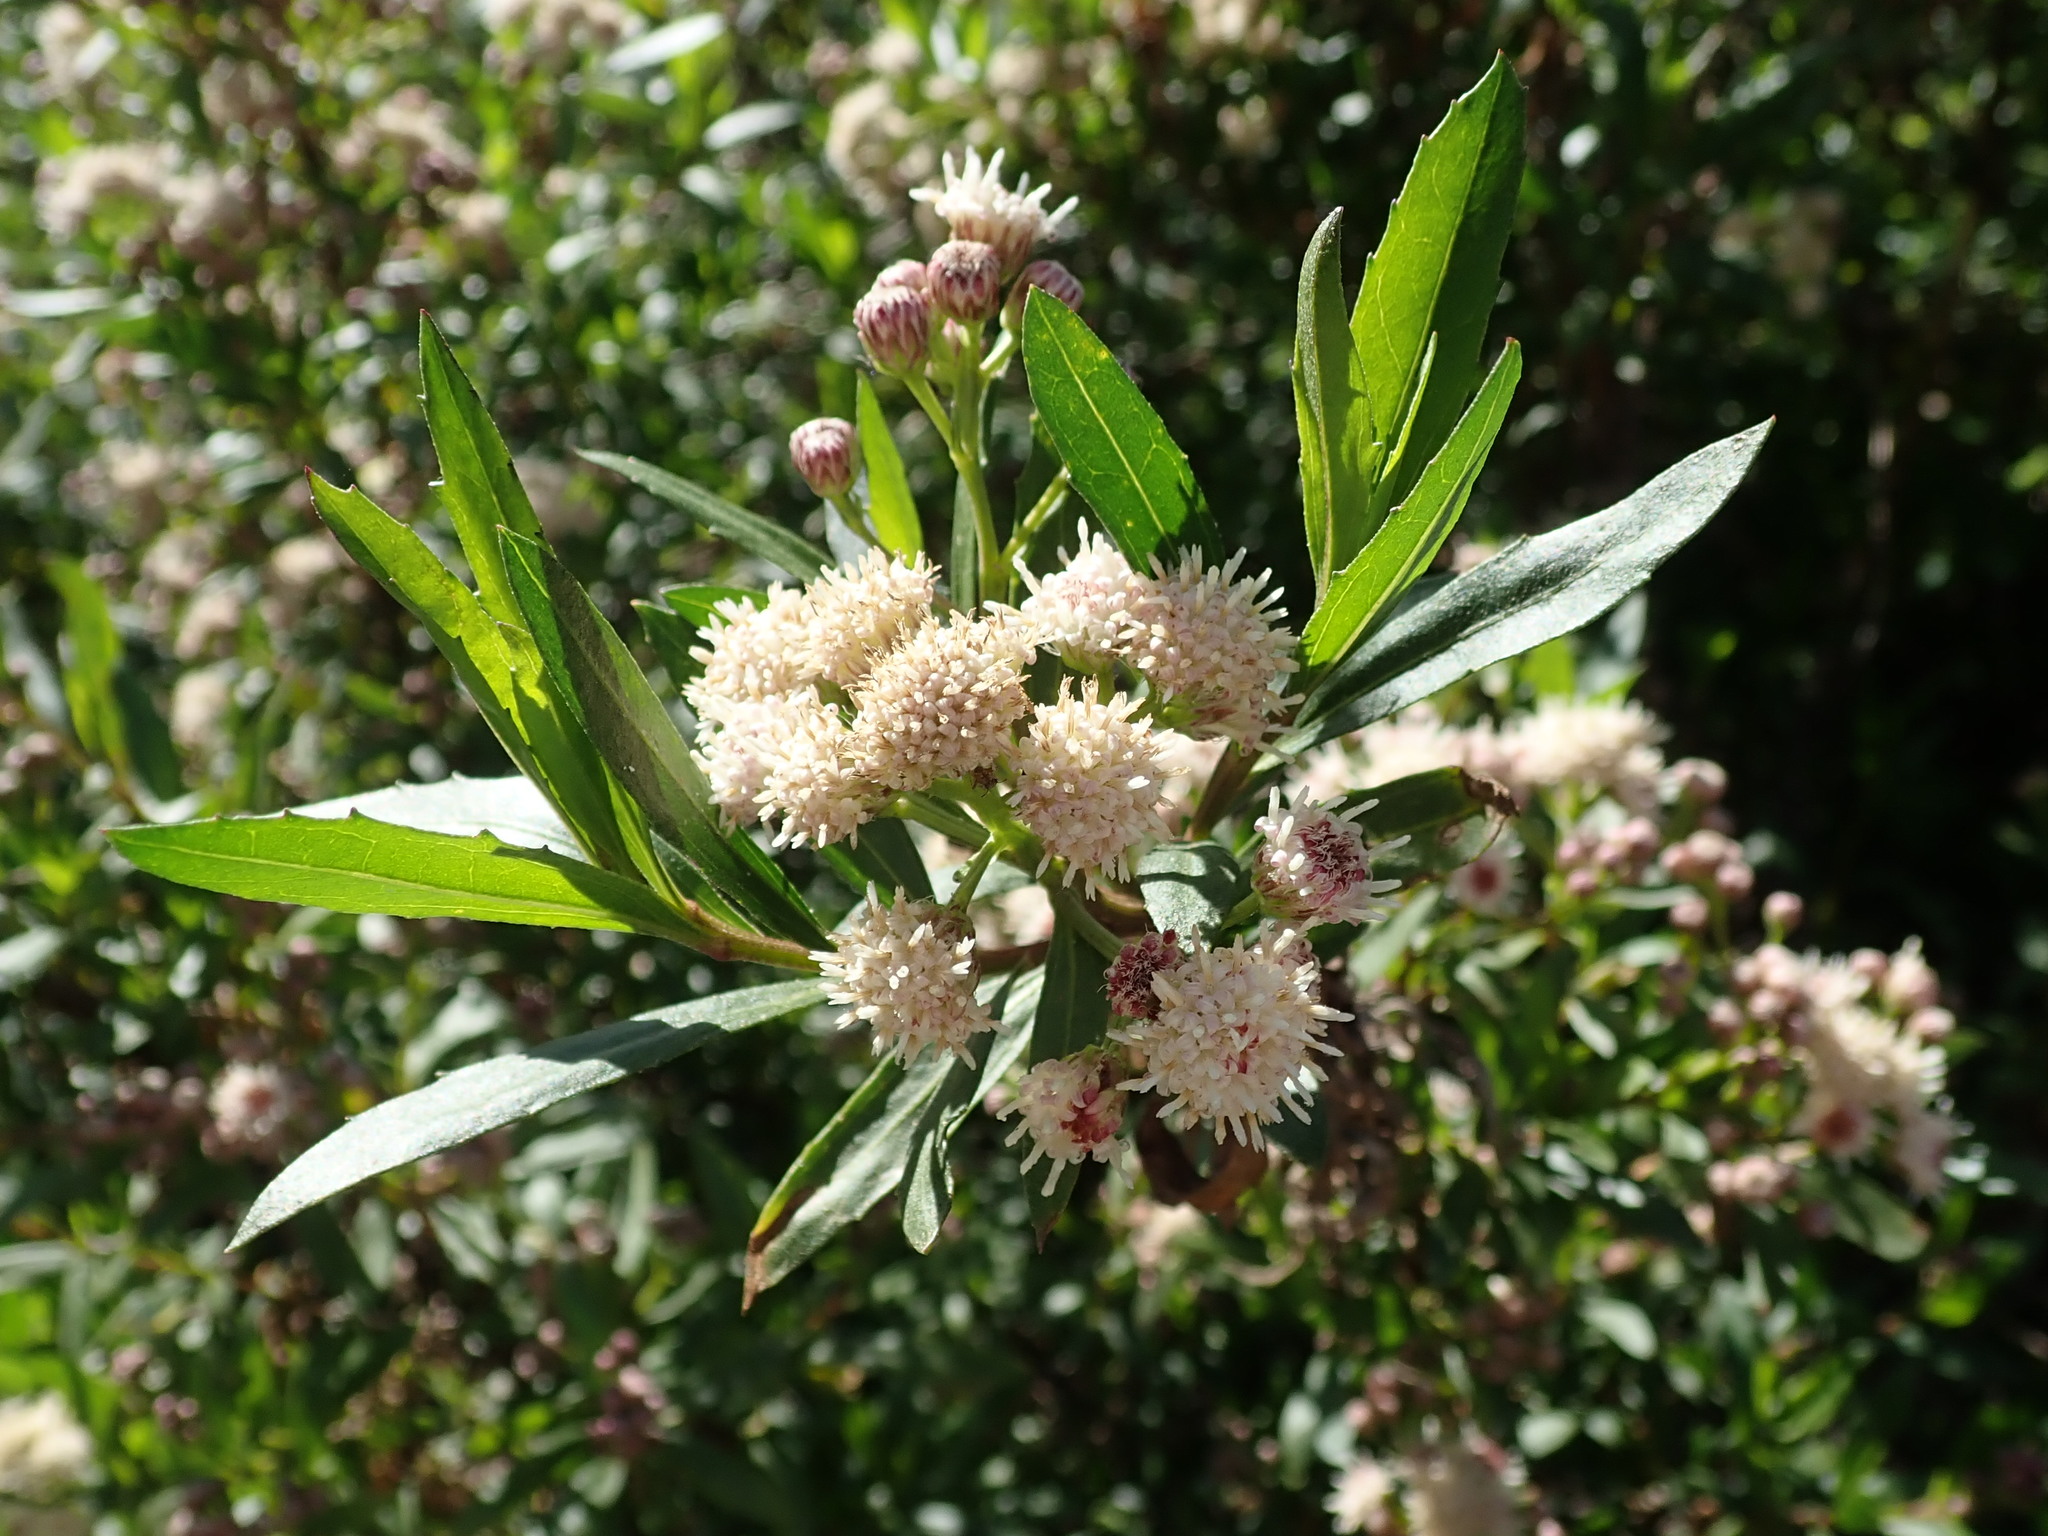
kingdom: Plantae
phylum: Tracheophyta
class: Magnoliopsida
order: Asterales
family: Asteraceae
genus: Baccharis
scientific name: Baccharis salicifolia
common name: Sticky baccharis
